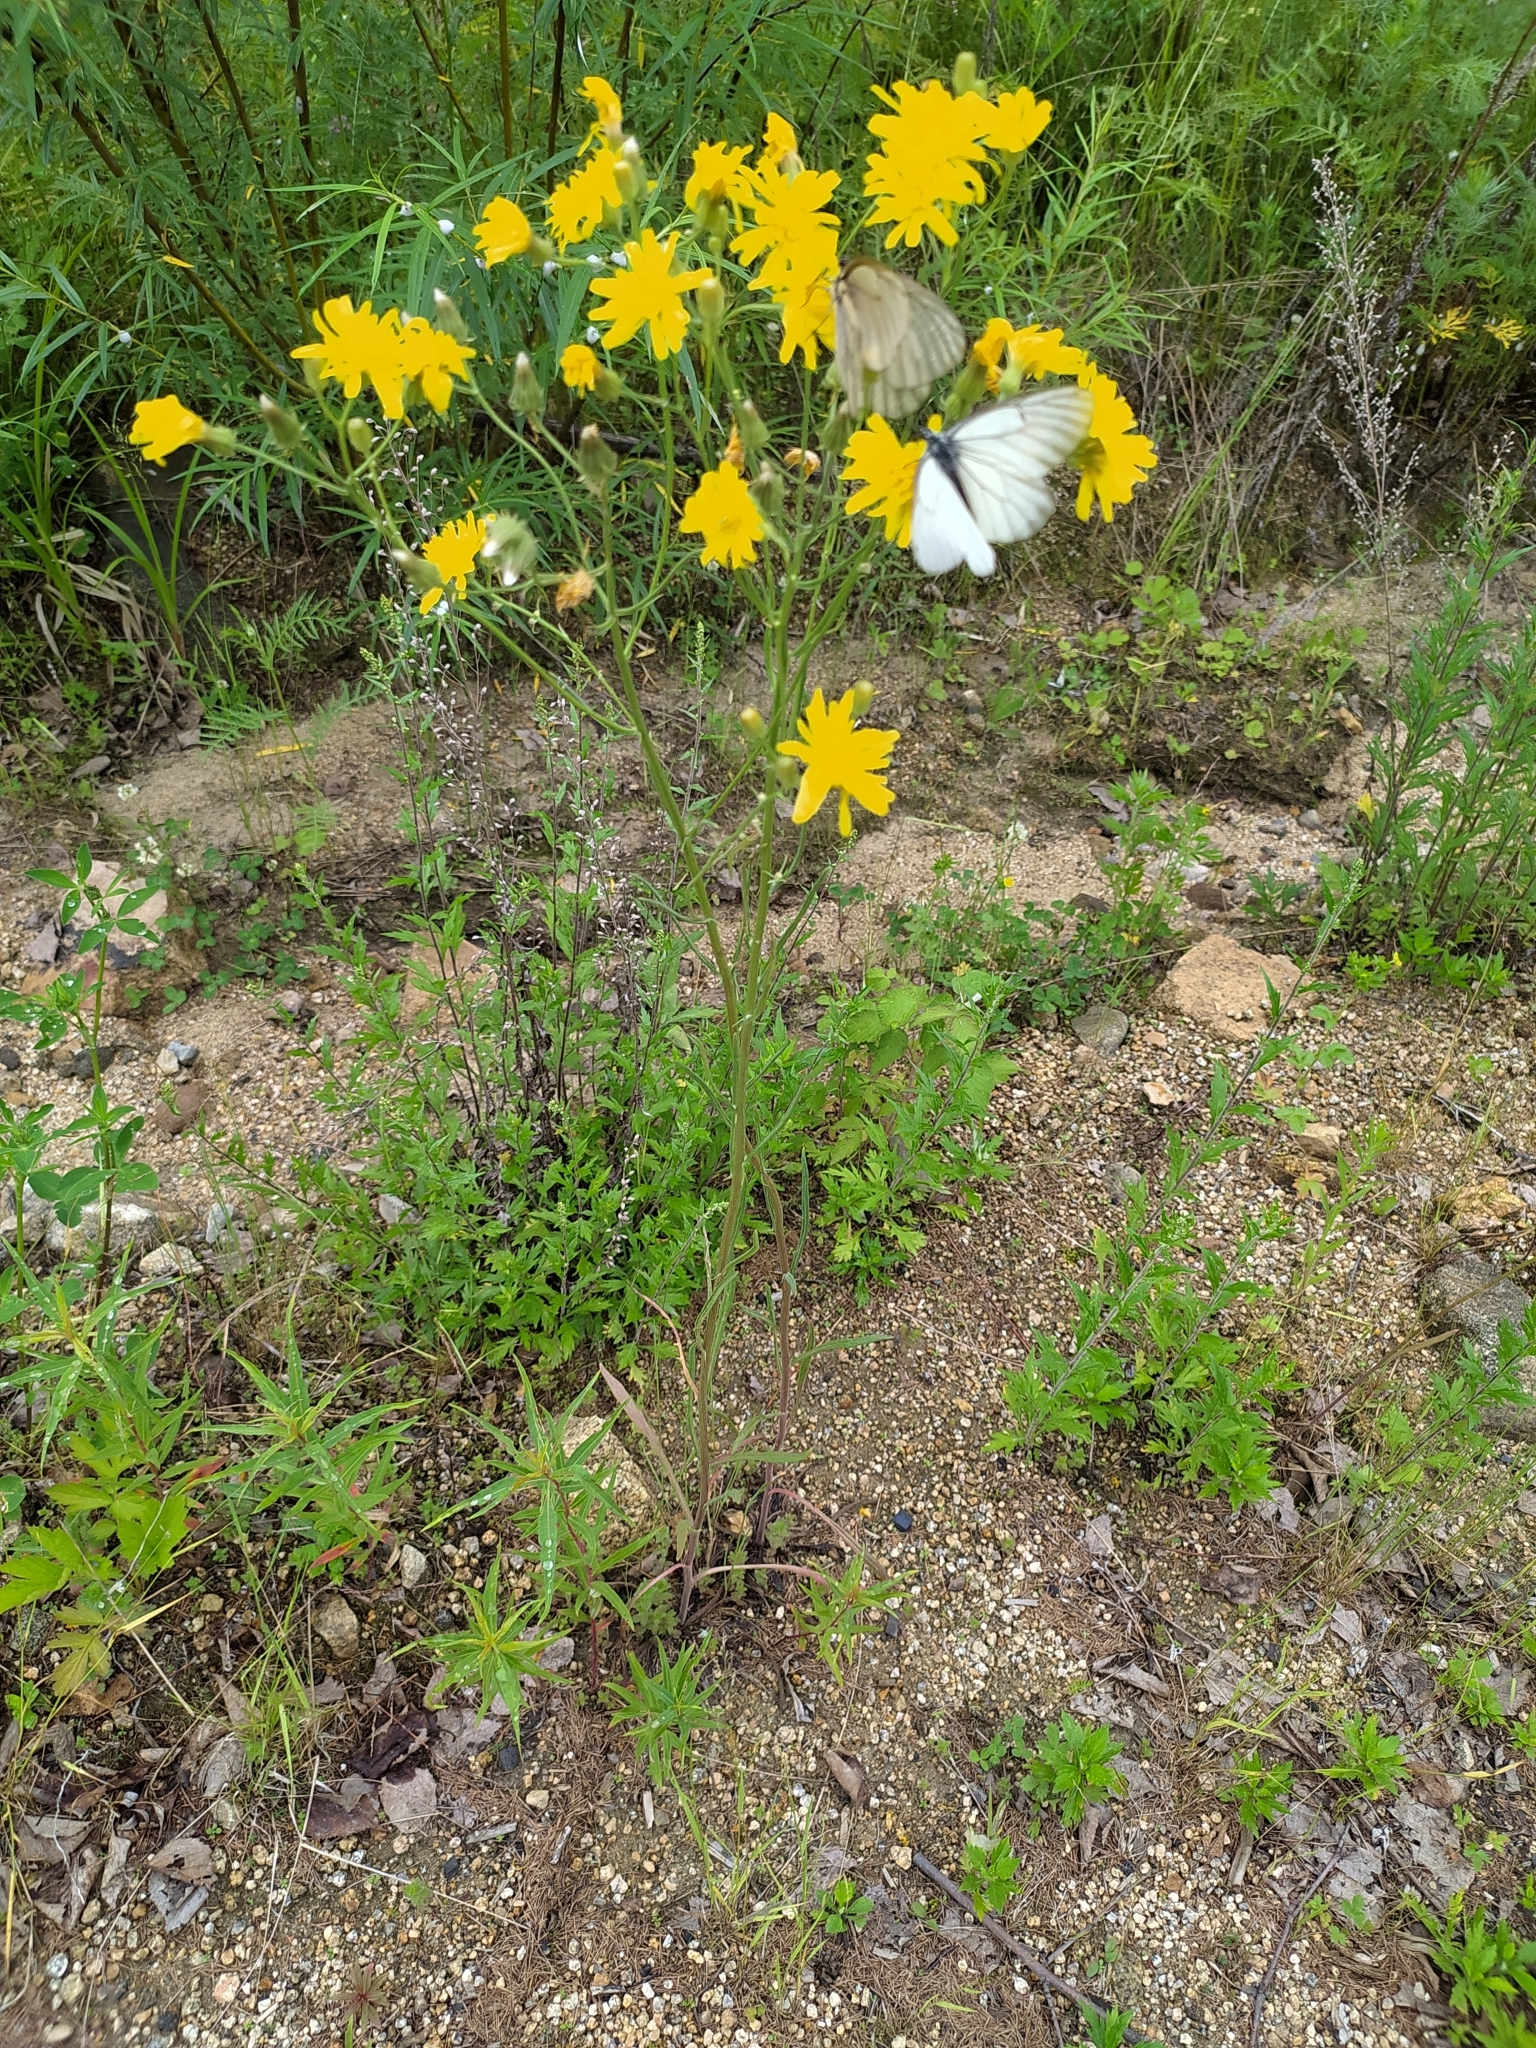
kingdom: Plantae
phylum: Tracheophyta
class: Magnoliopsida
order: Asterales
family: Asteraceae
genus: Crepis
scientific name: Crepis tectorum
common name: Narrow-leaved hawk's-beard
